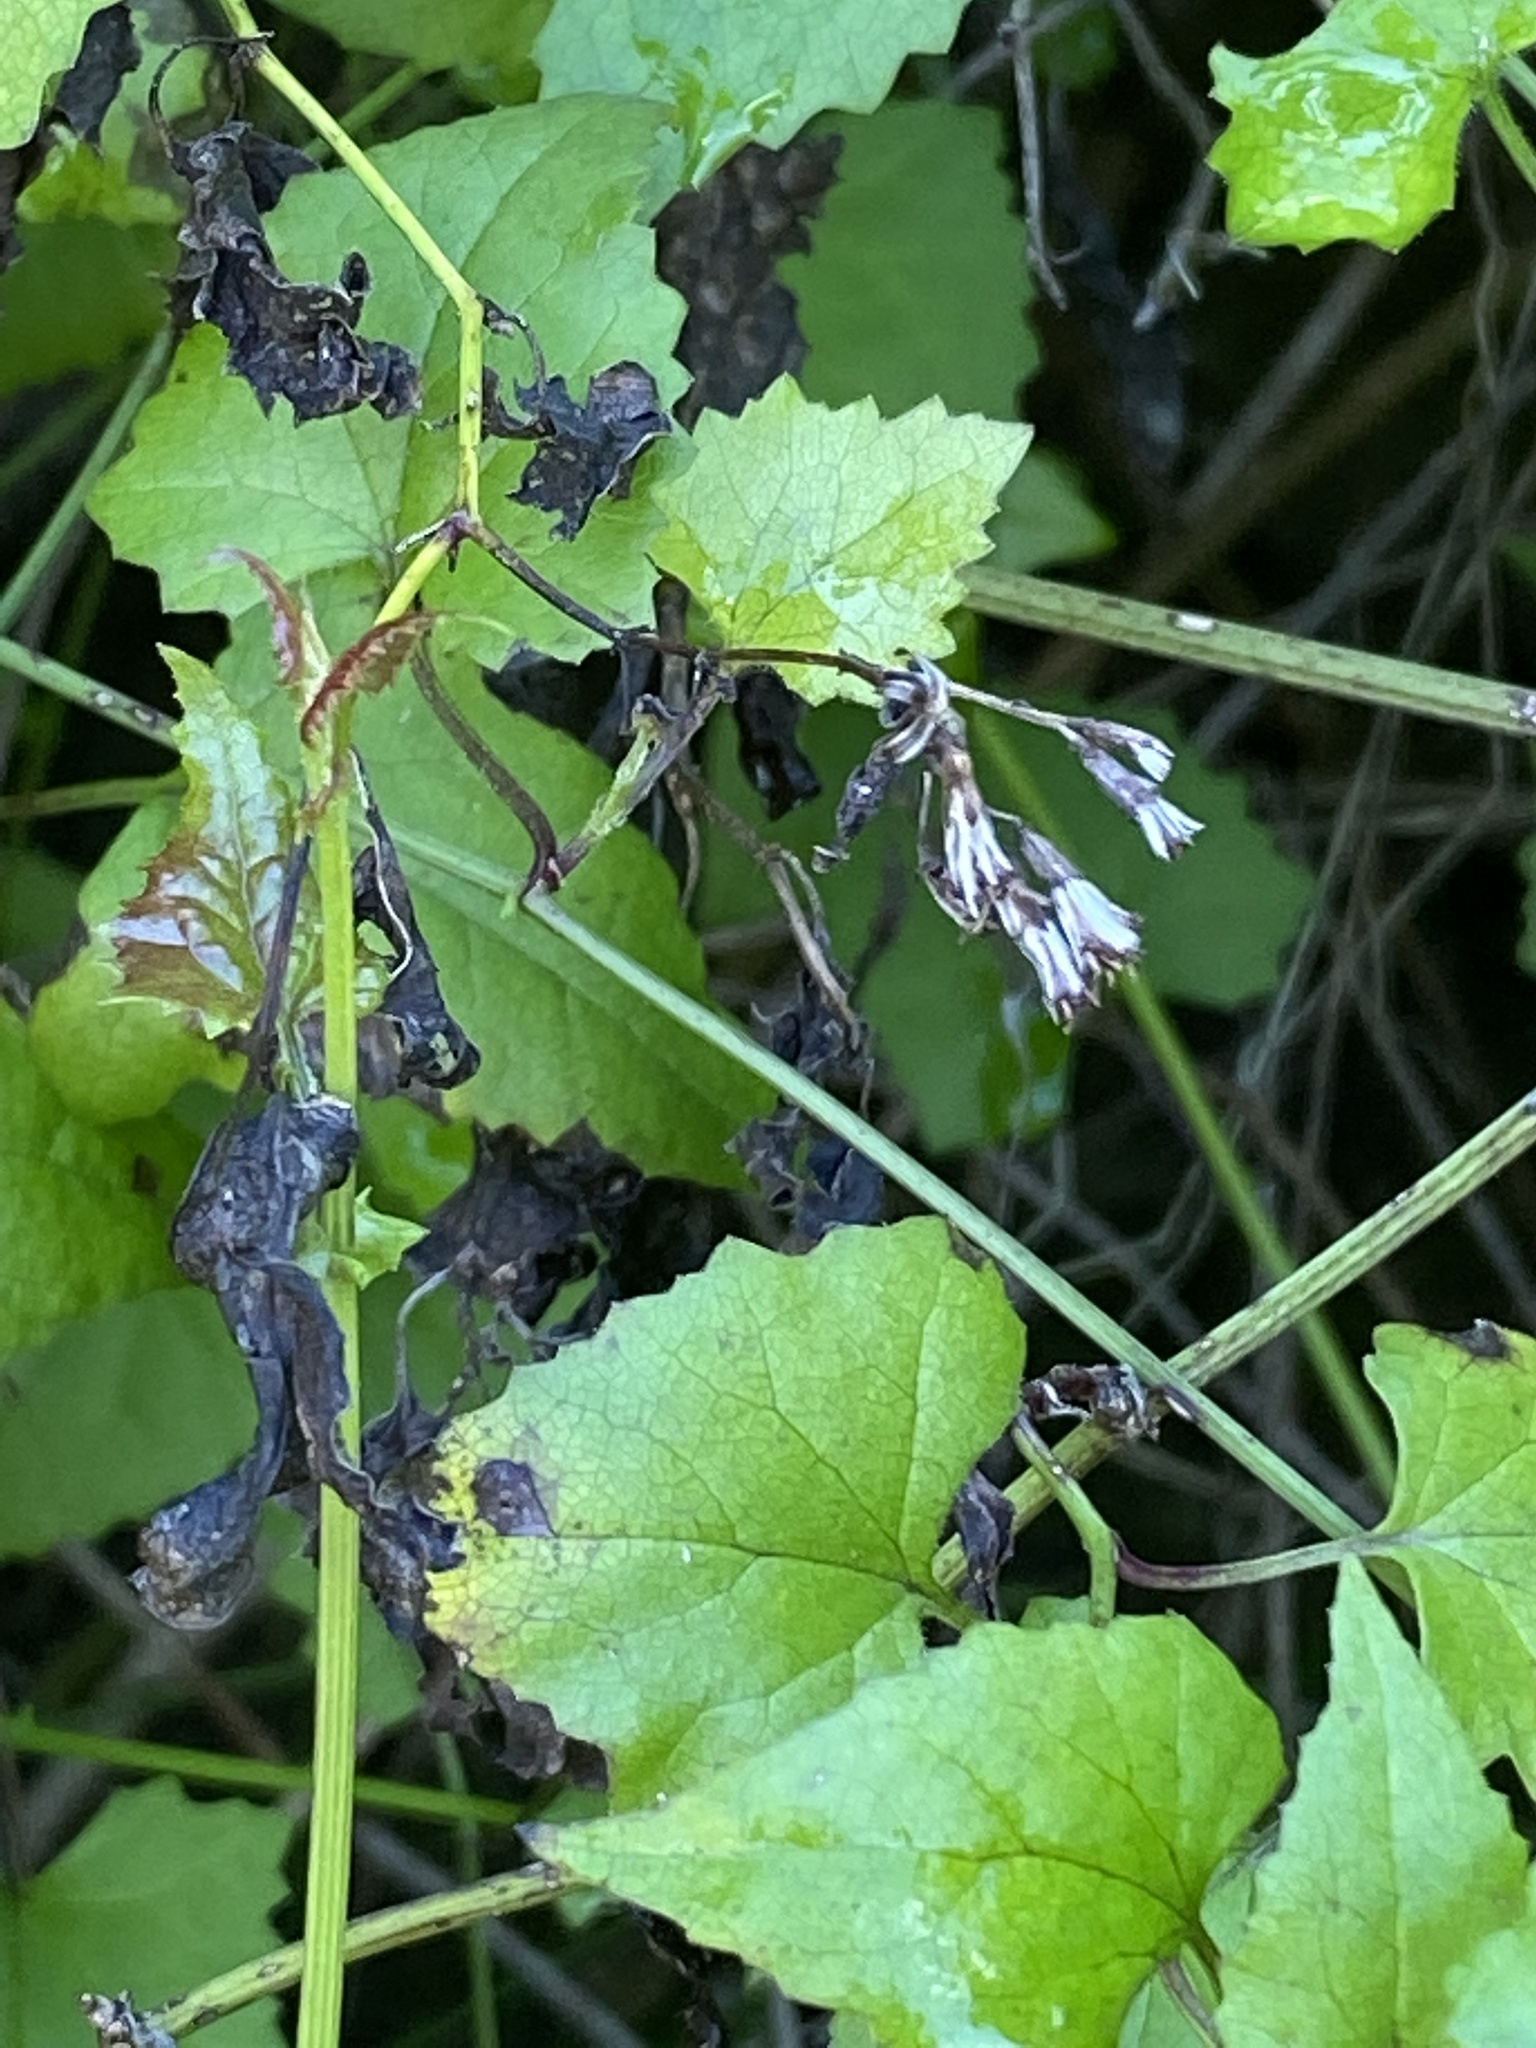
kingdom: Plantae
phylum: Tracheophyta
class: Magnoliopsida
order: Asterales
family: Asteraceae
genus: Senecio
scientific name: Senecio deltoideus
